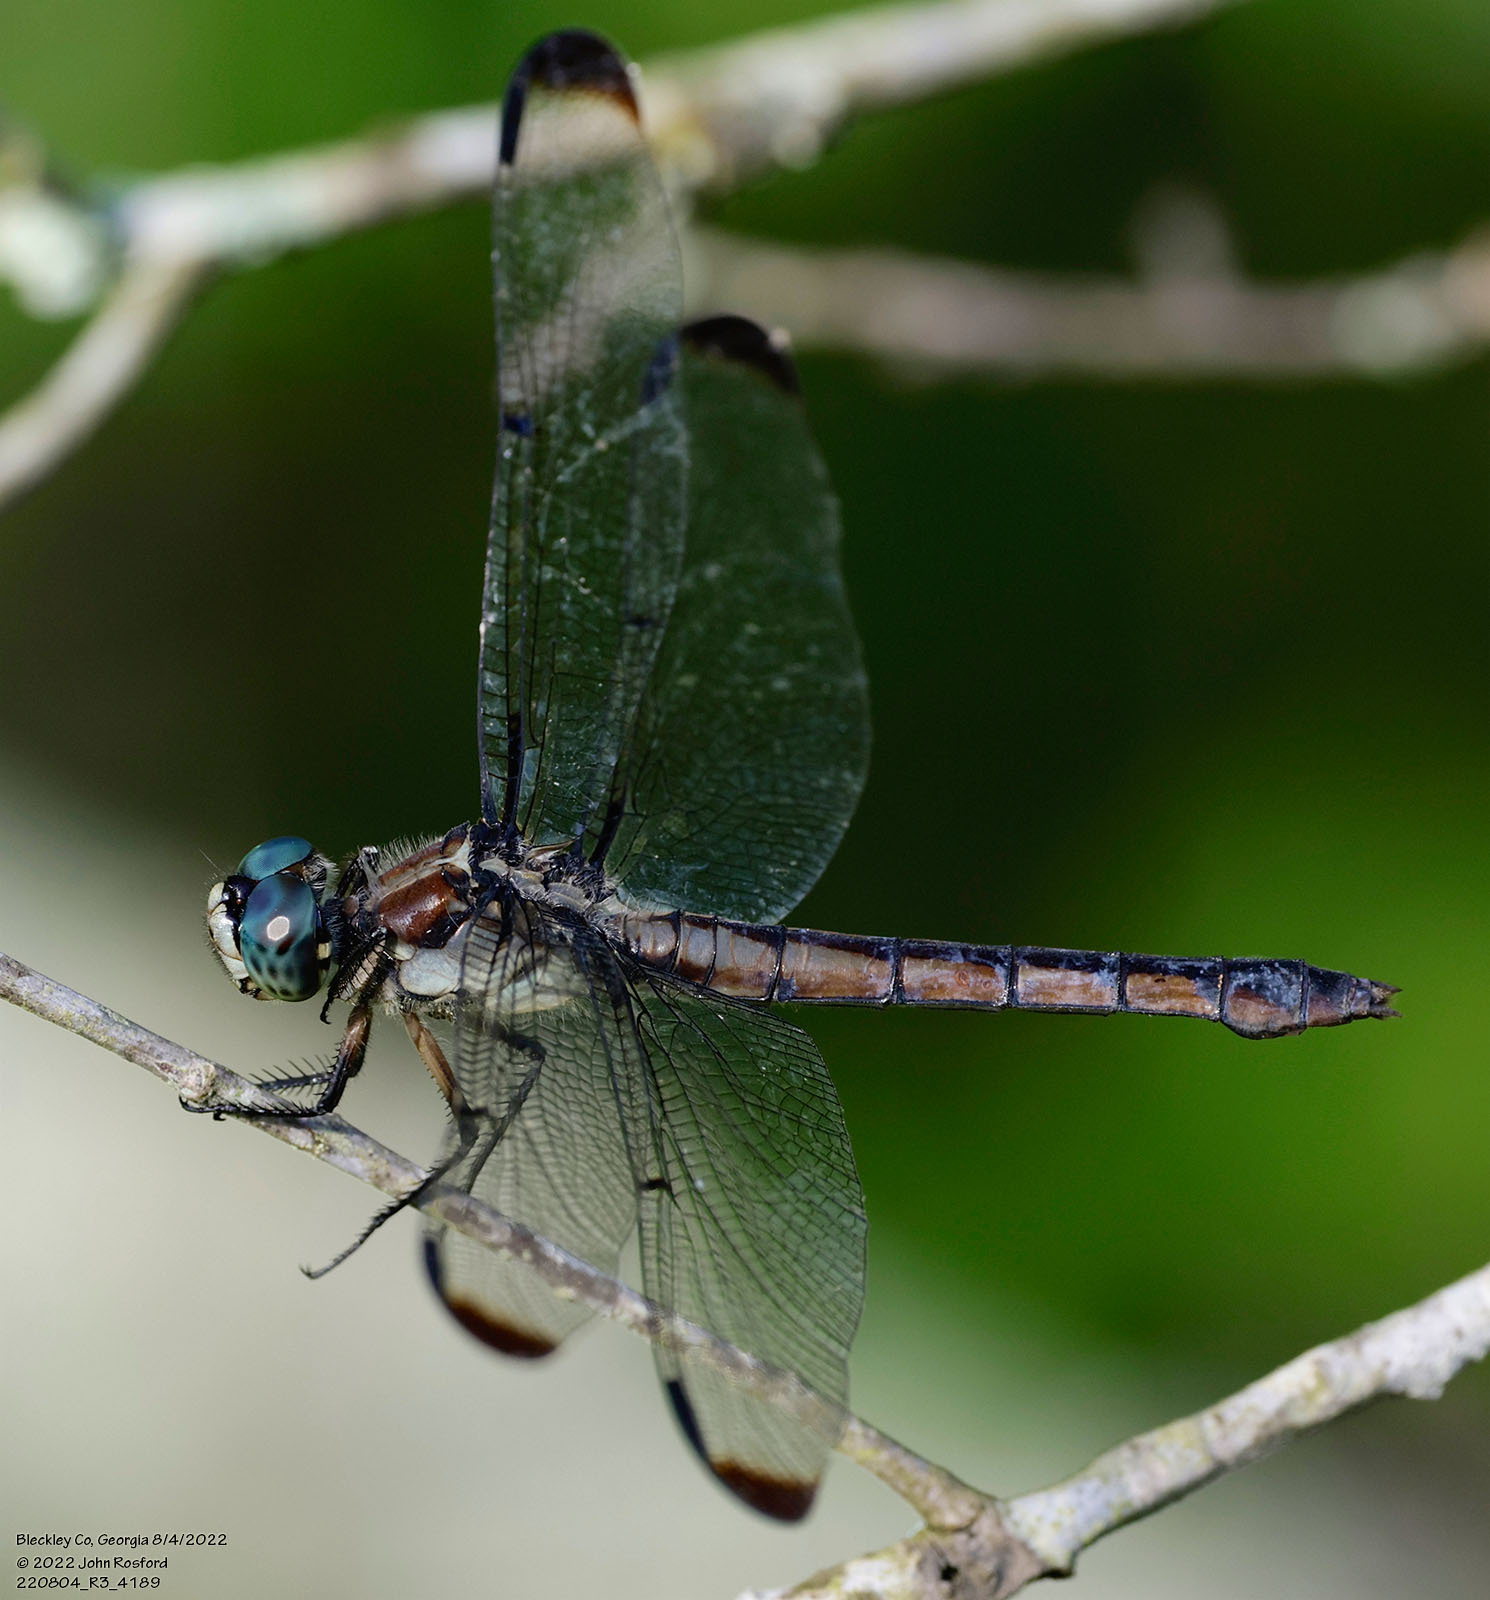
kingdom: Animalia
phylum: Arthropoda
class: Insecta
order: Odonata
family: Libellulidae
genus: Libellula
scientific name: Libellula vibrans
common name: Great blue skimmer
